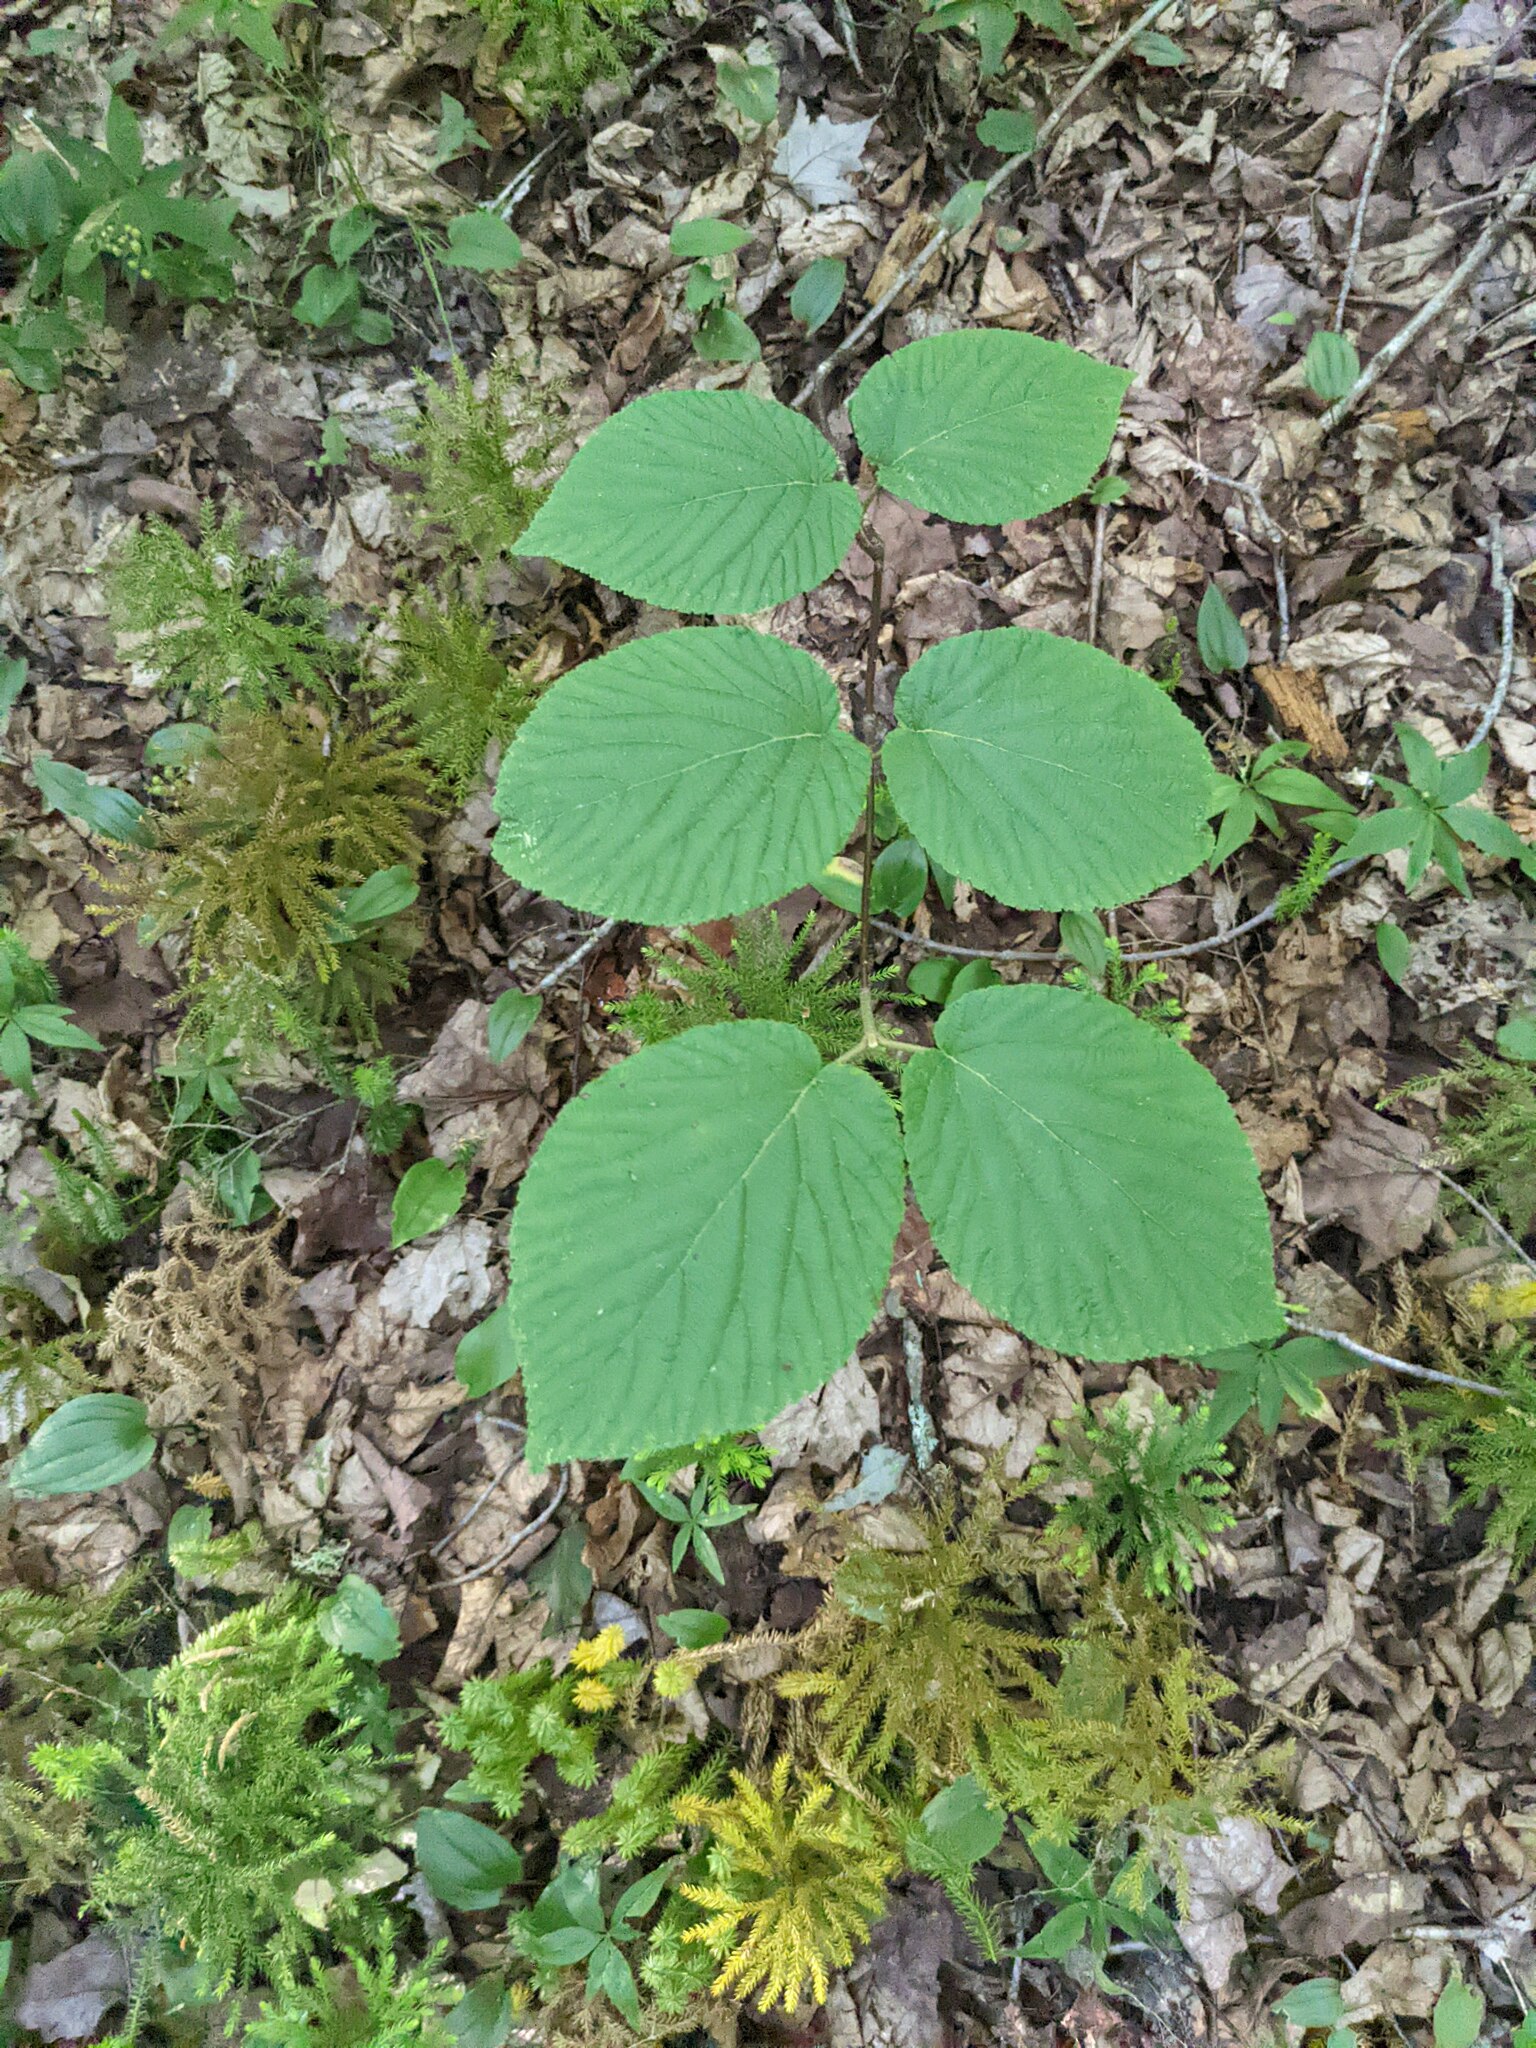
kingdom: Plantae
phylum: Tracheophyta
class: Magnoliopsida
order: Dipsacales
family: Viburnaceae
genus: Viburnum
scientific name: Viburnum lantanoides
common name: Hobblebush
